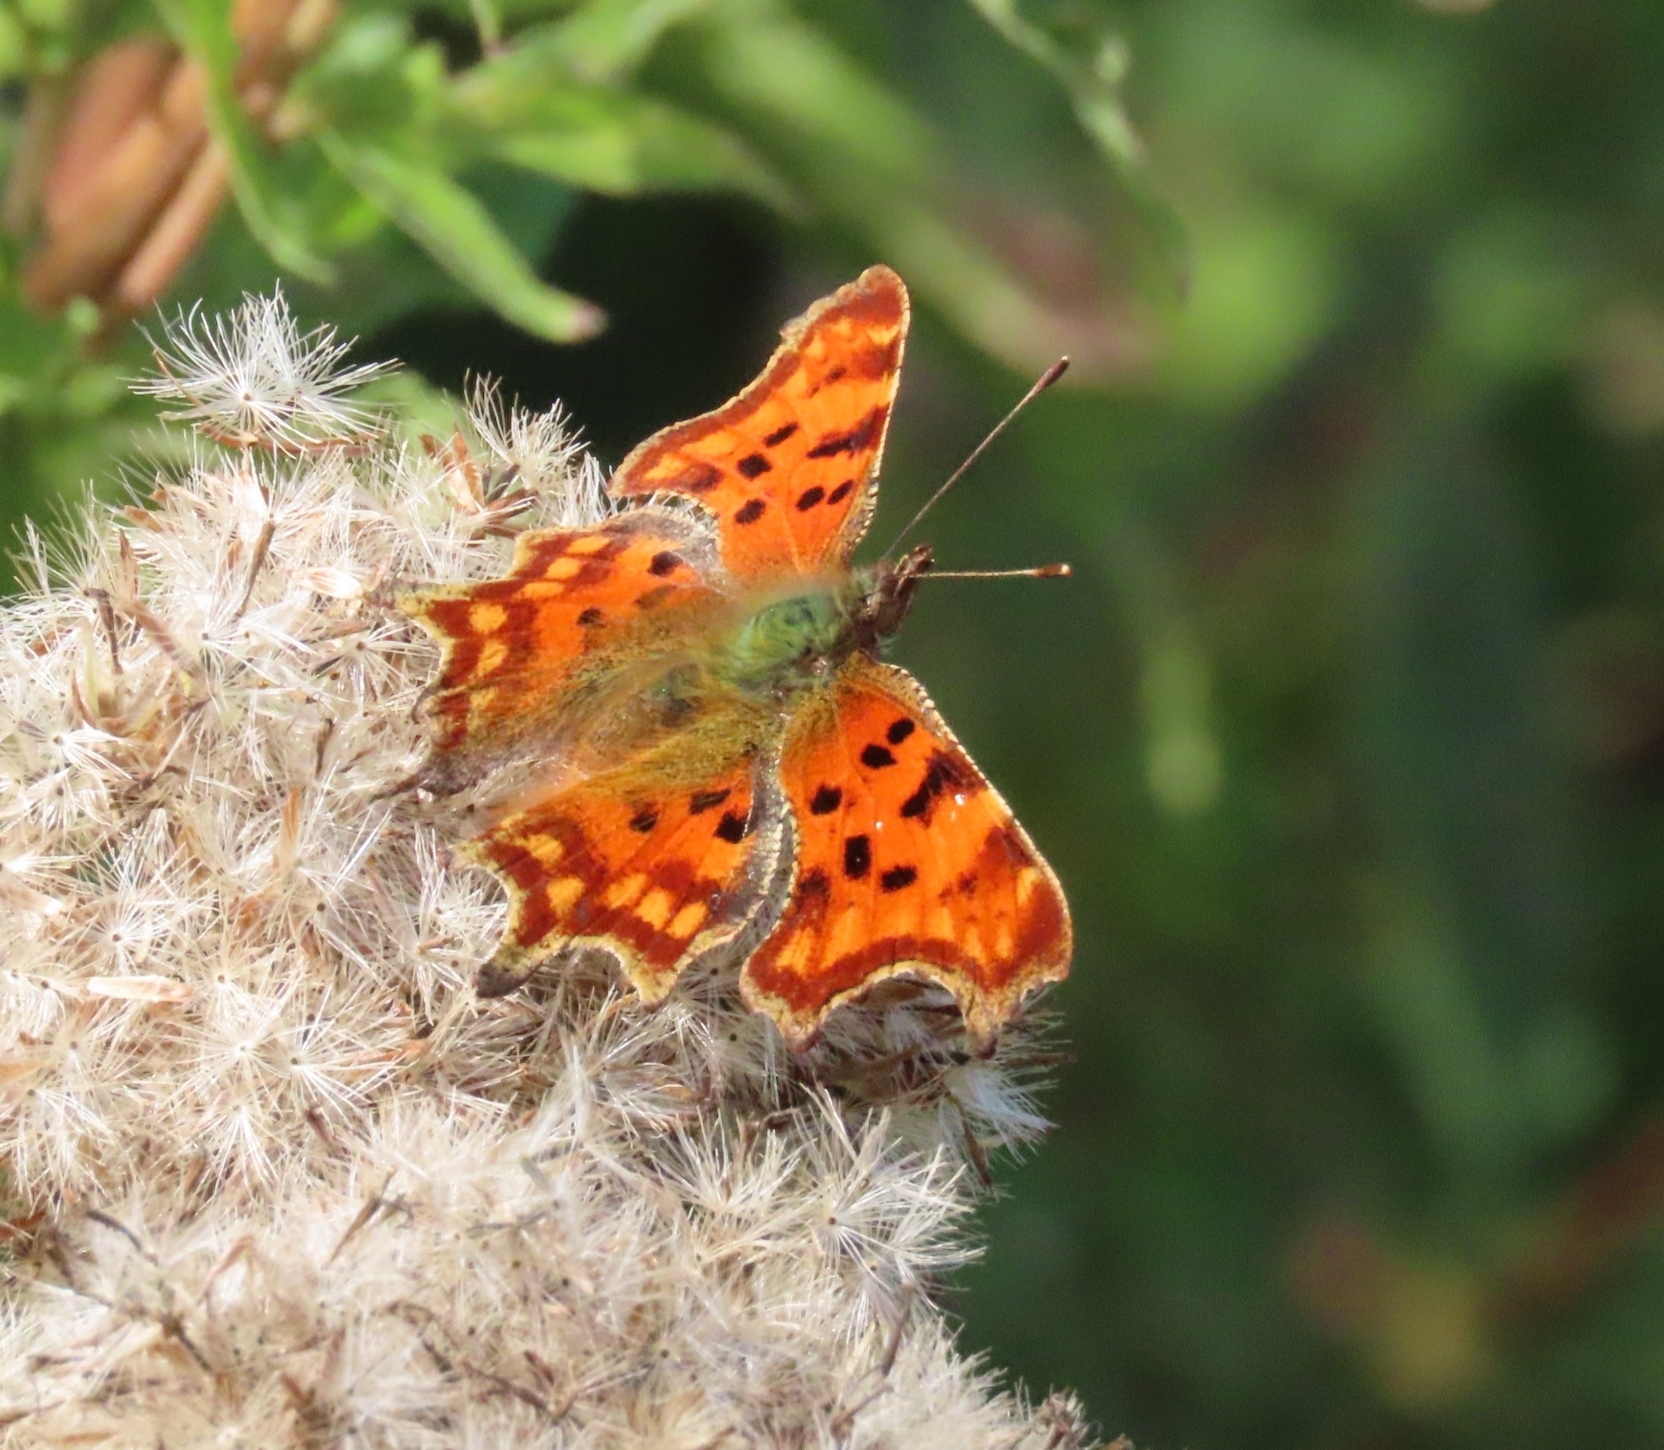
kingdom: Animalia
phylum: Arthropoda
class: Insecta
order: Lepidoptera
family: Nymphalidae
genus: Polygonia
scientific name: Polygonia c-album
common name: Comma
